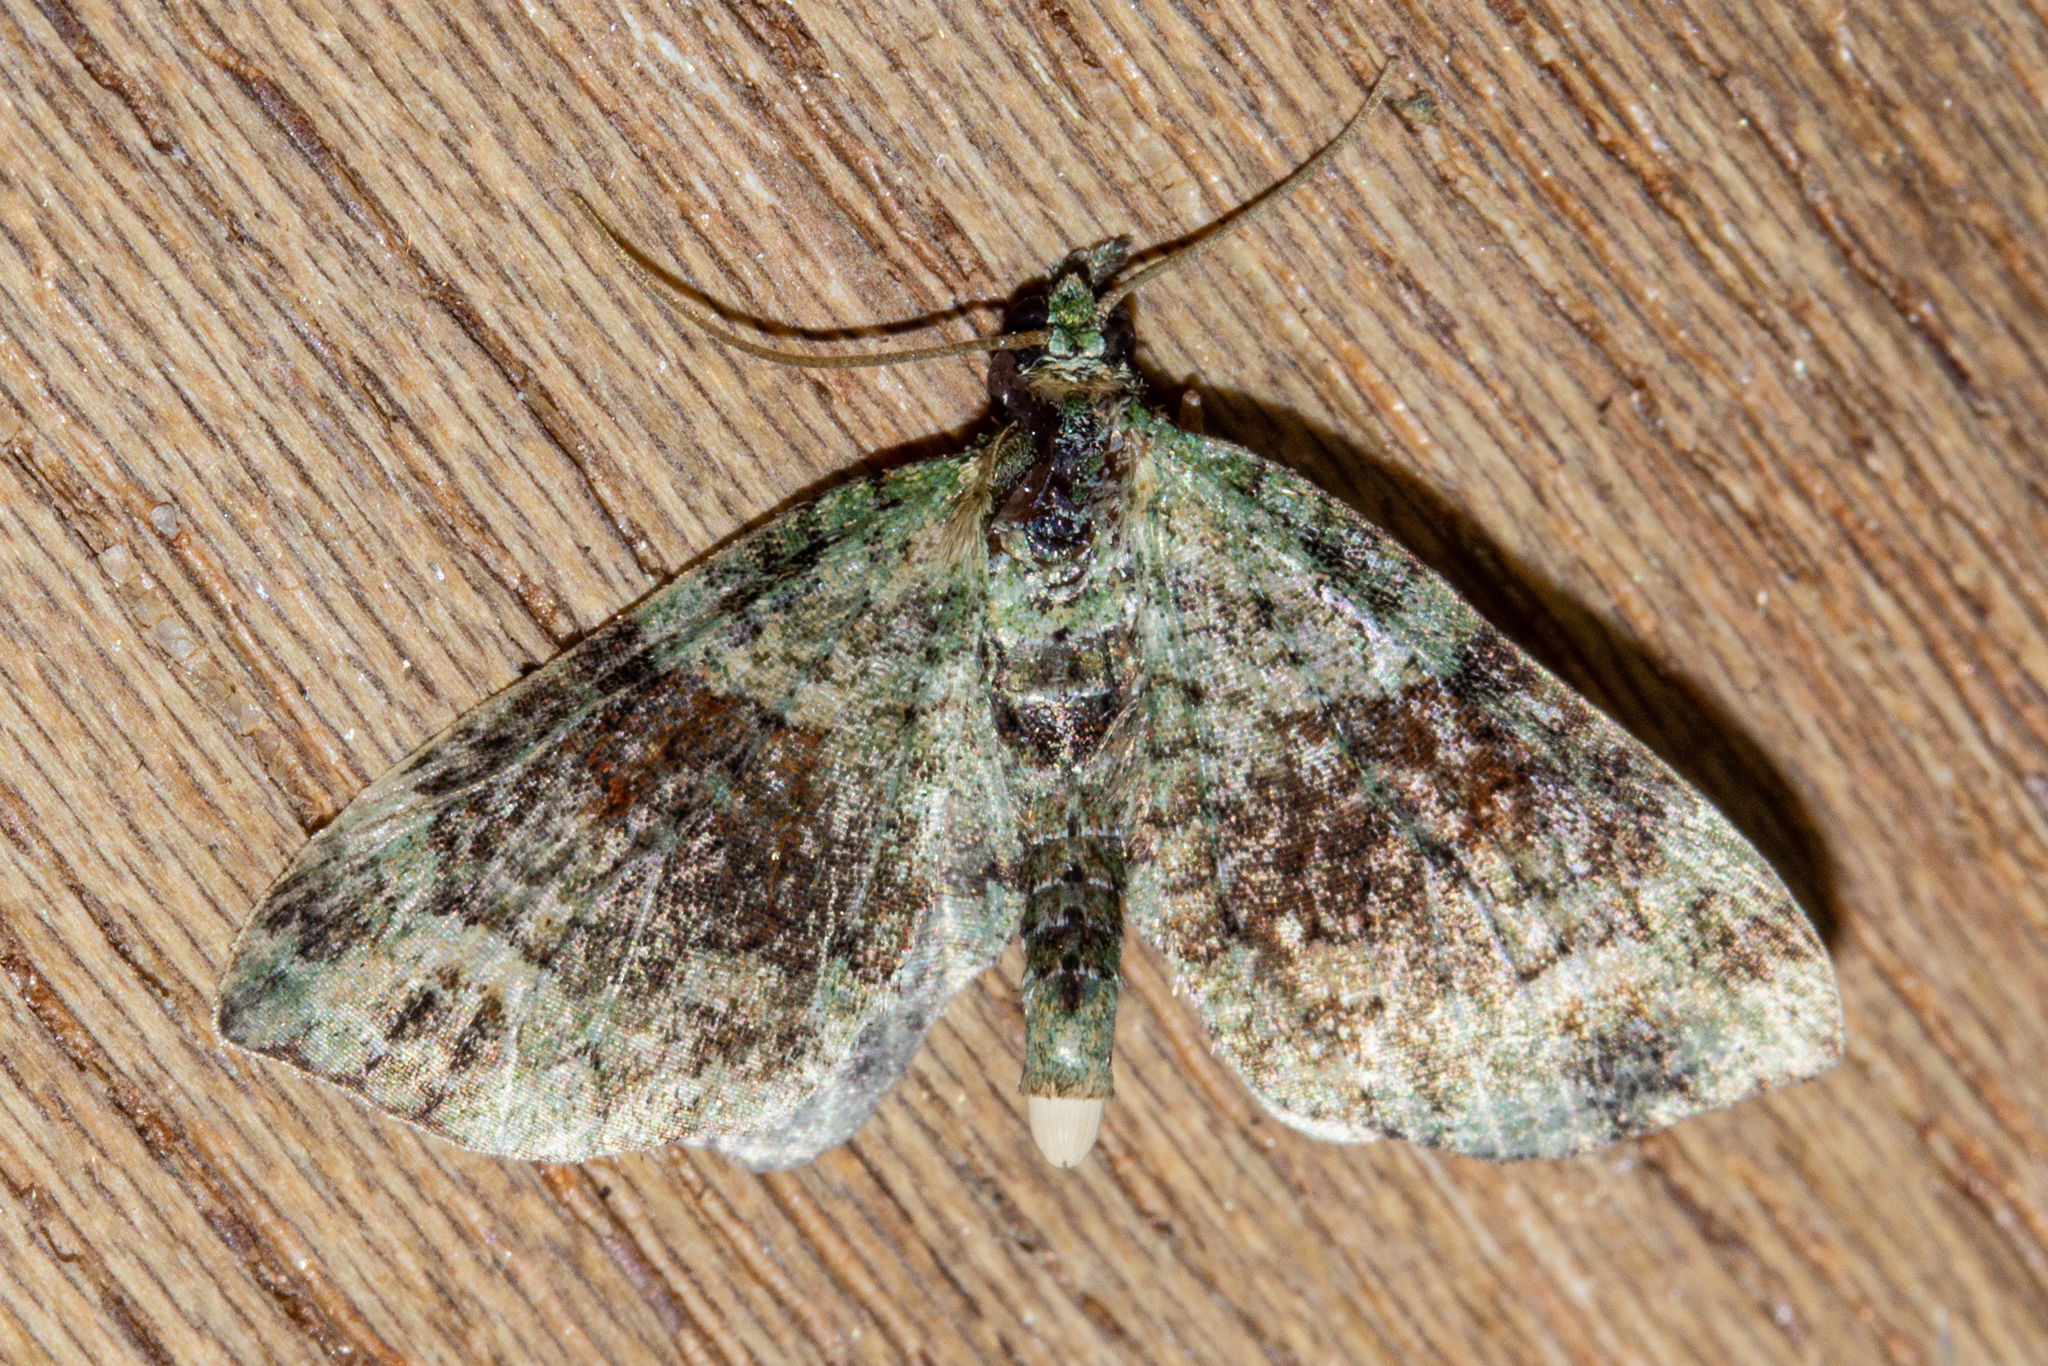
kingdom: Animalia
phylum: Arthropoda
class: Insecta
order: Lepidoptera
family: Geometridae
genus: Idaea
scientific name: Idaea mutanda
